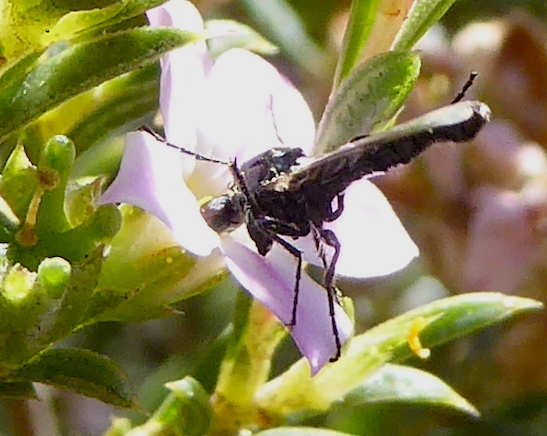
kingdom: Animalia
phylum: Arthropoda
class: Insecta
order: Diptera
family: Bibionidae
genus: Dilophus
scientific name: Dilophus
